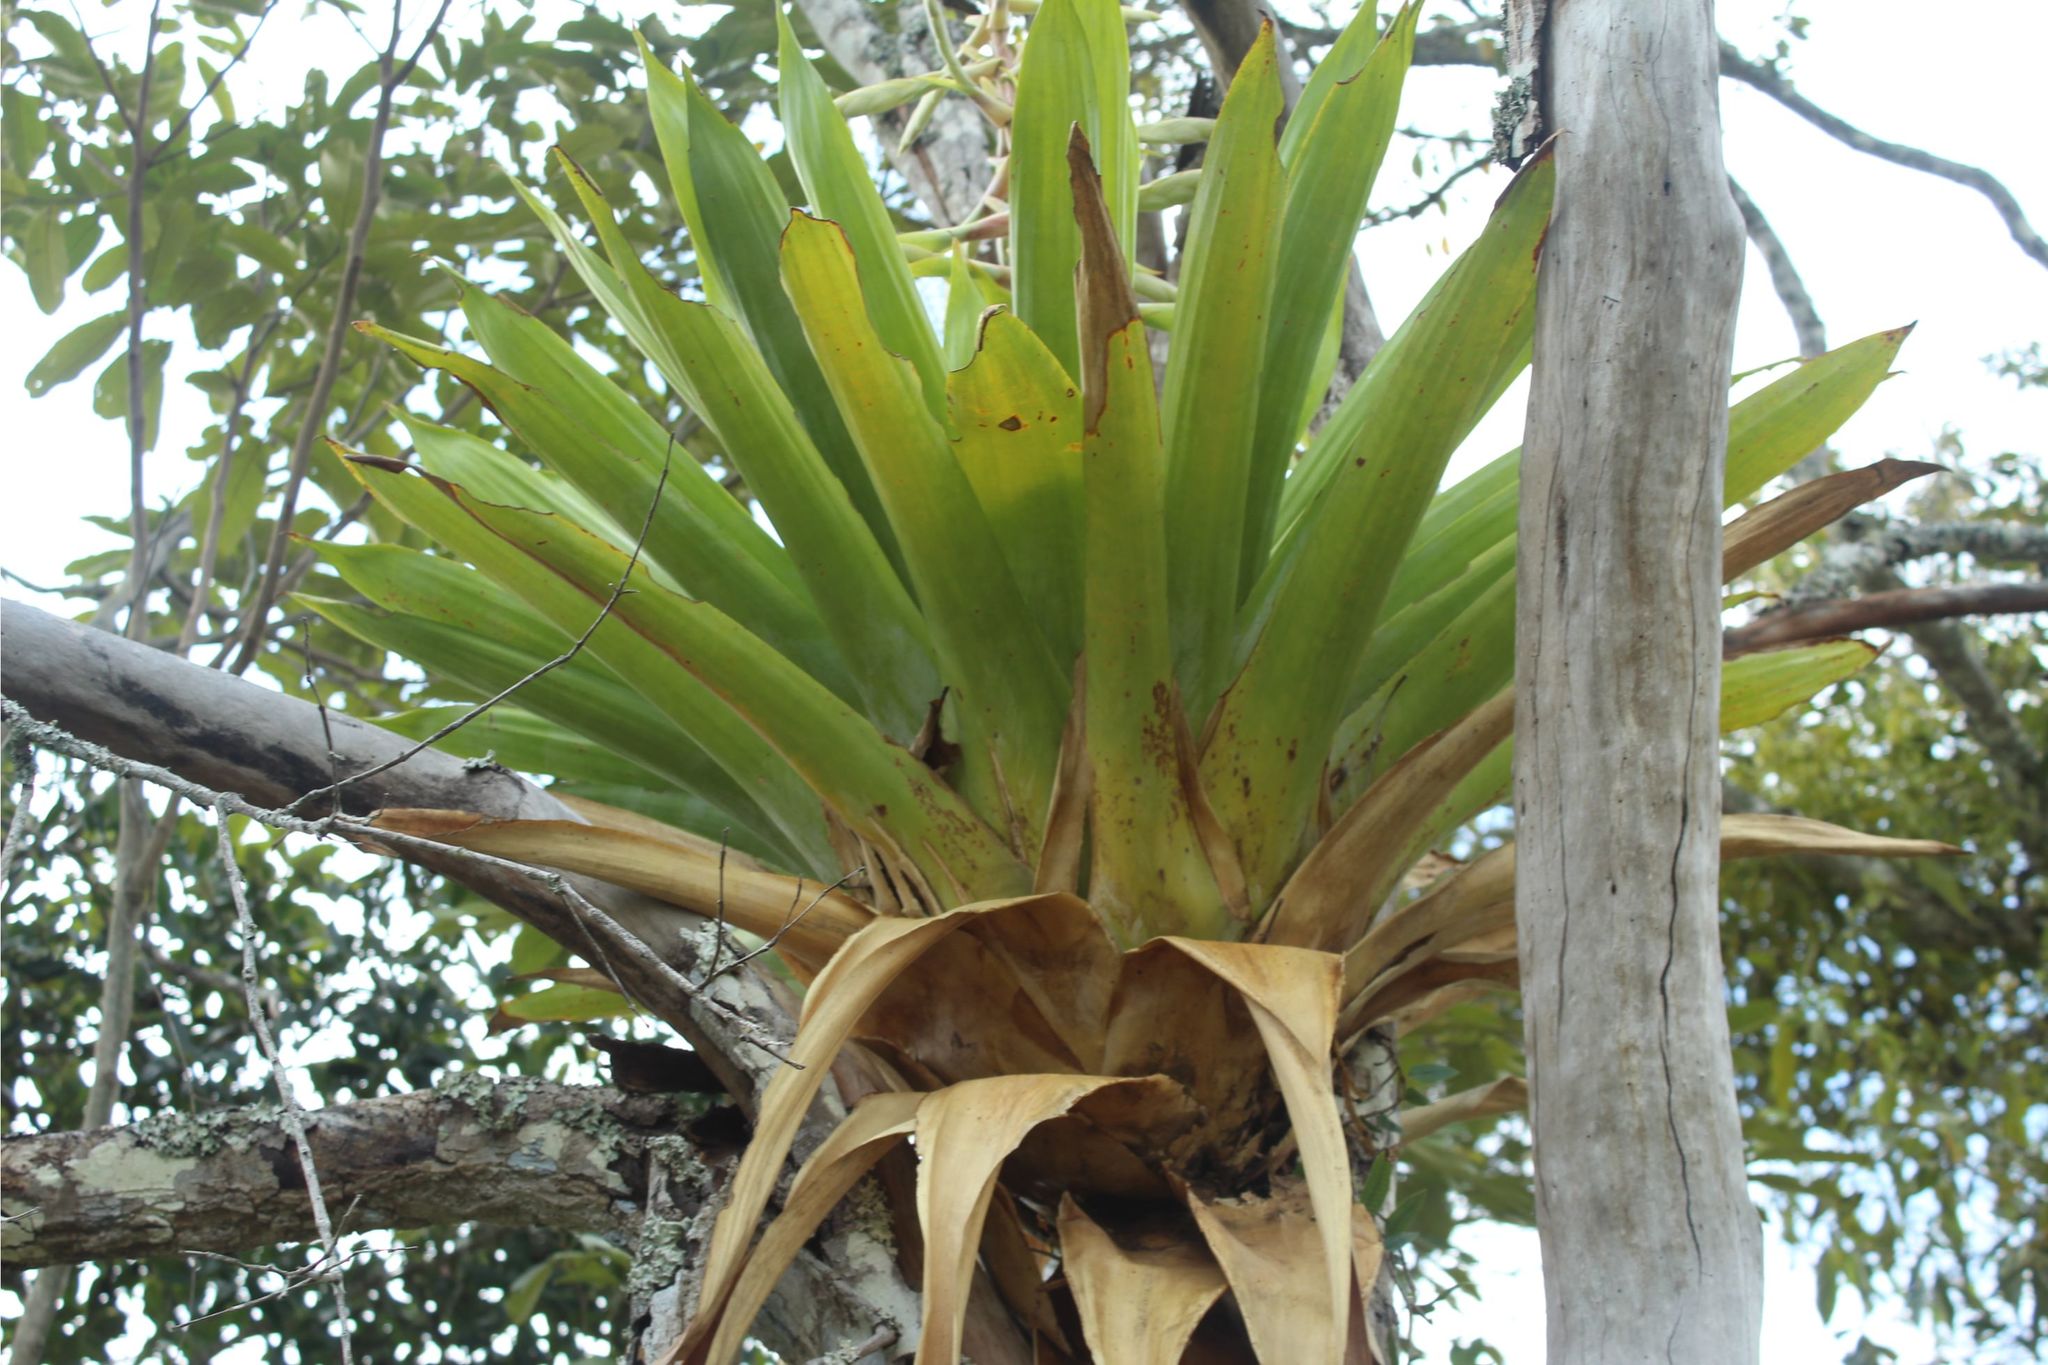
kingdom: Plantae
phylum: Tracheophyta
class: Liliopsida
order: Poales
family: Bromeliaceae
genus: Tillandsia
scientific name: Tillandsia fendleri
